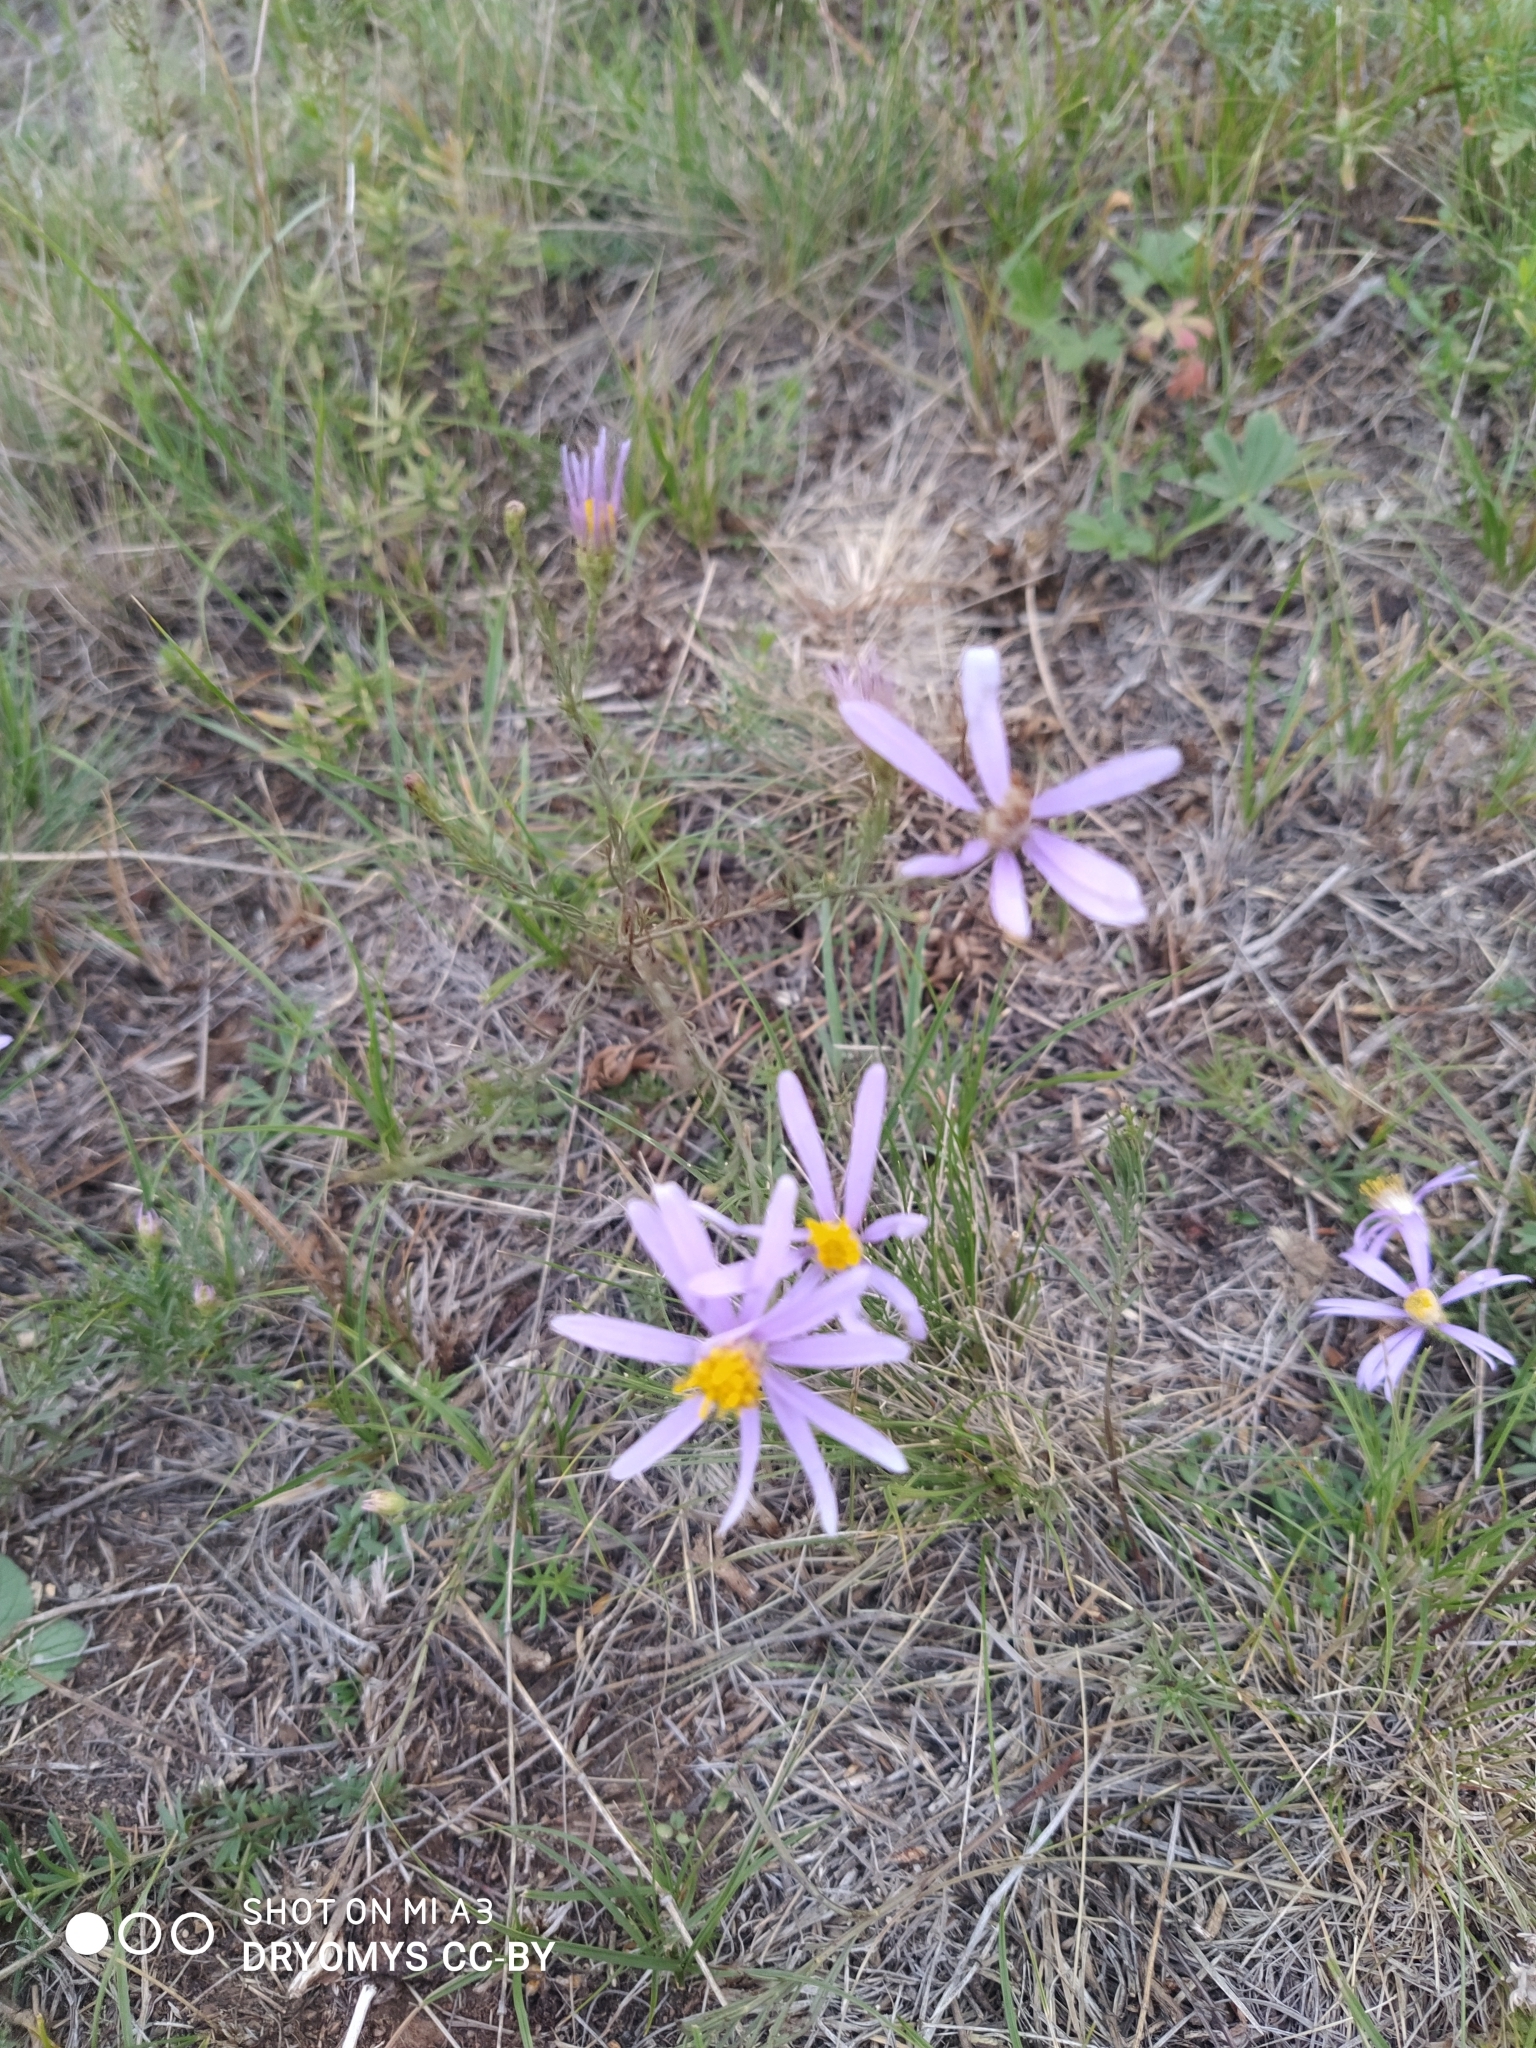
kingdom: Plantae
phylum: Tracheophyta
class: Magnoliopsida
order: Asterales
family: Asteraceae
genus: Galatella
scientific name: Galatella angustissima
